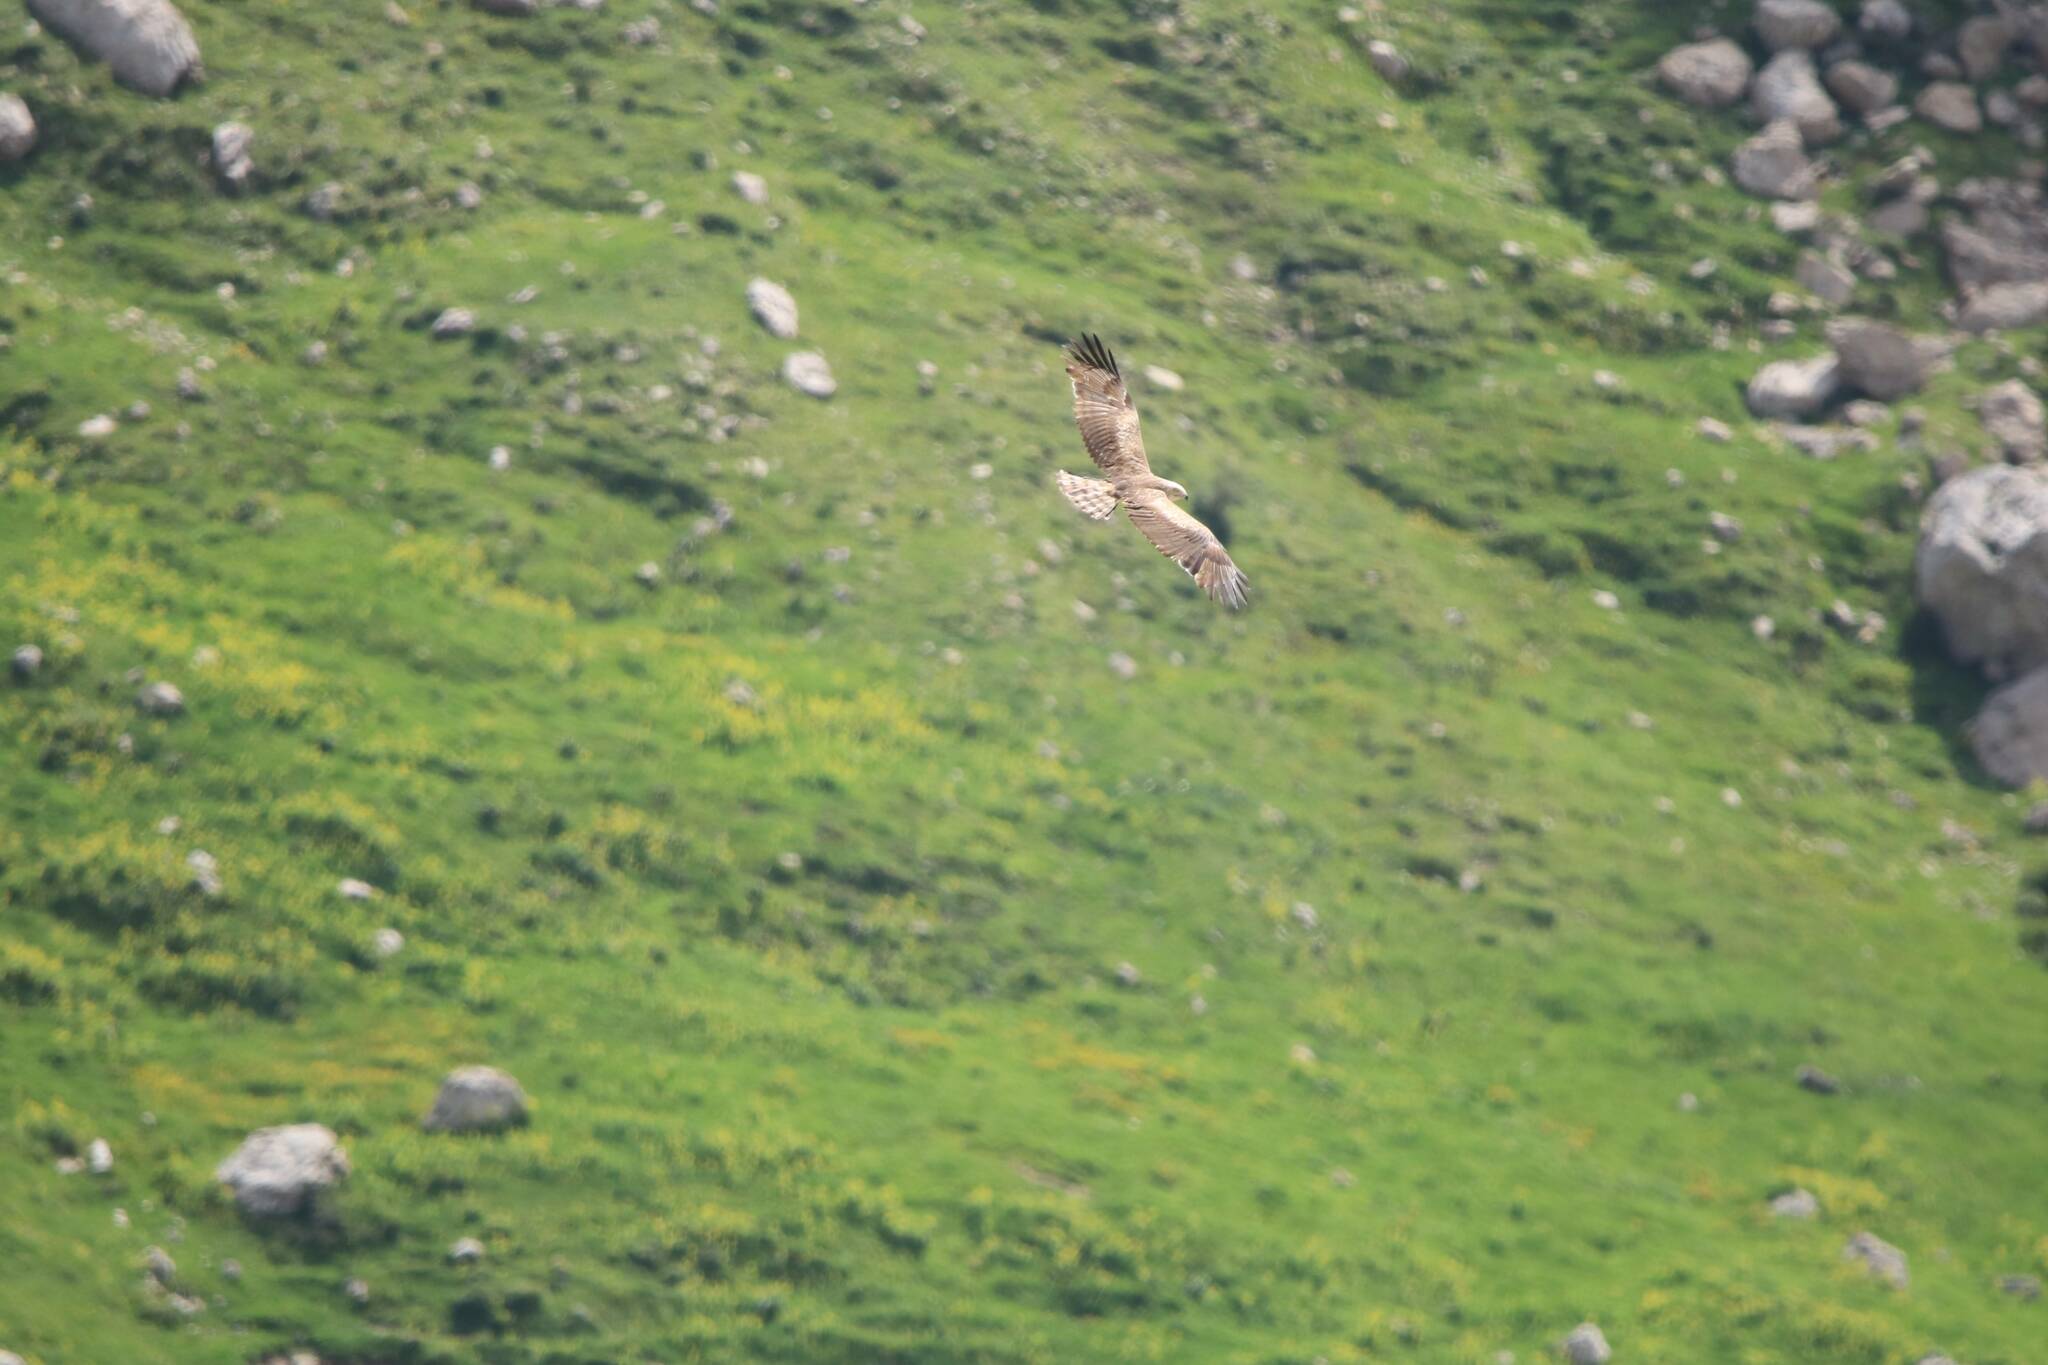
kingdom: Animalia
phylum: Chordata
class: Aves
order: Accipitriformes
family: Accipitridae
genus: Circaetus
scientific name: Circaetus gallicus
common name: Short-toed snake eagle
